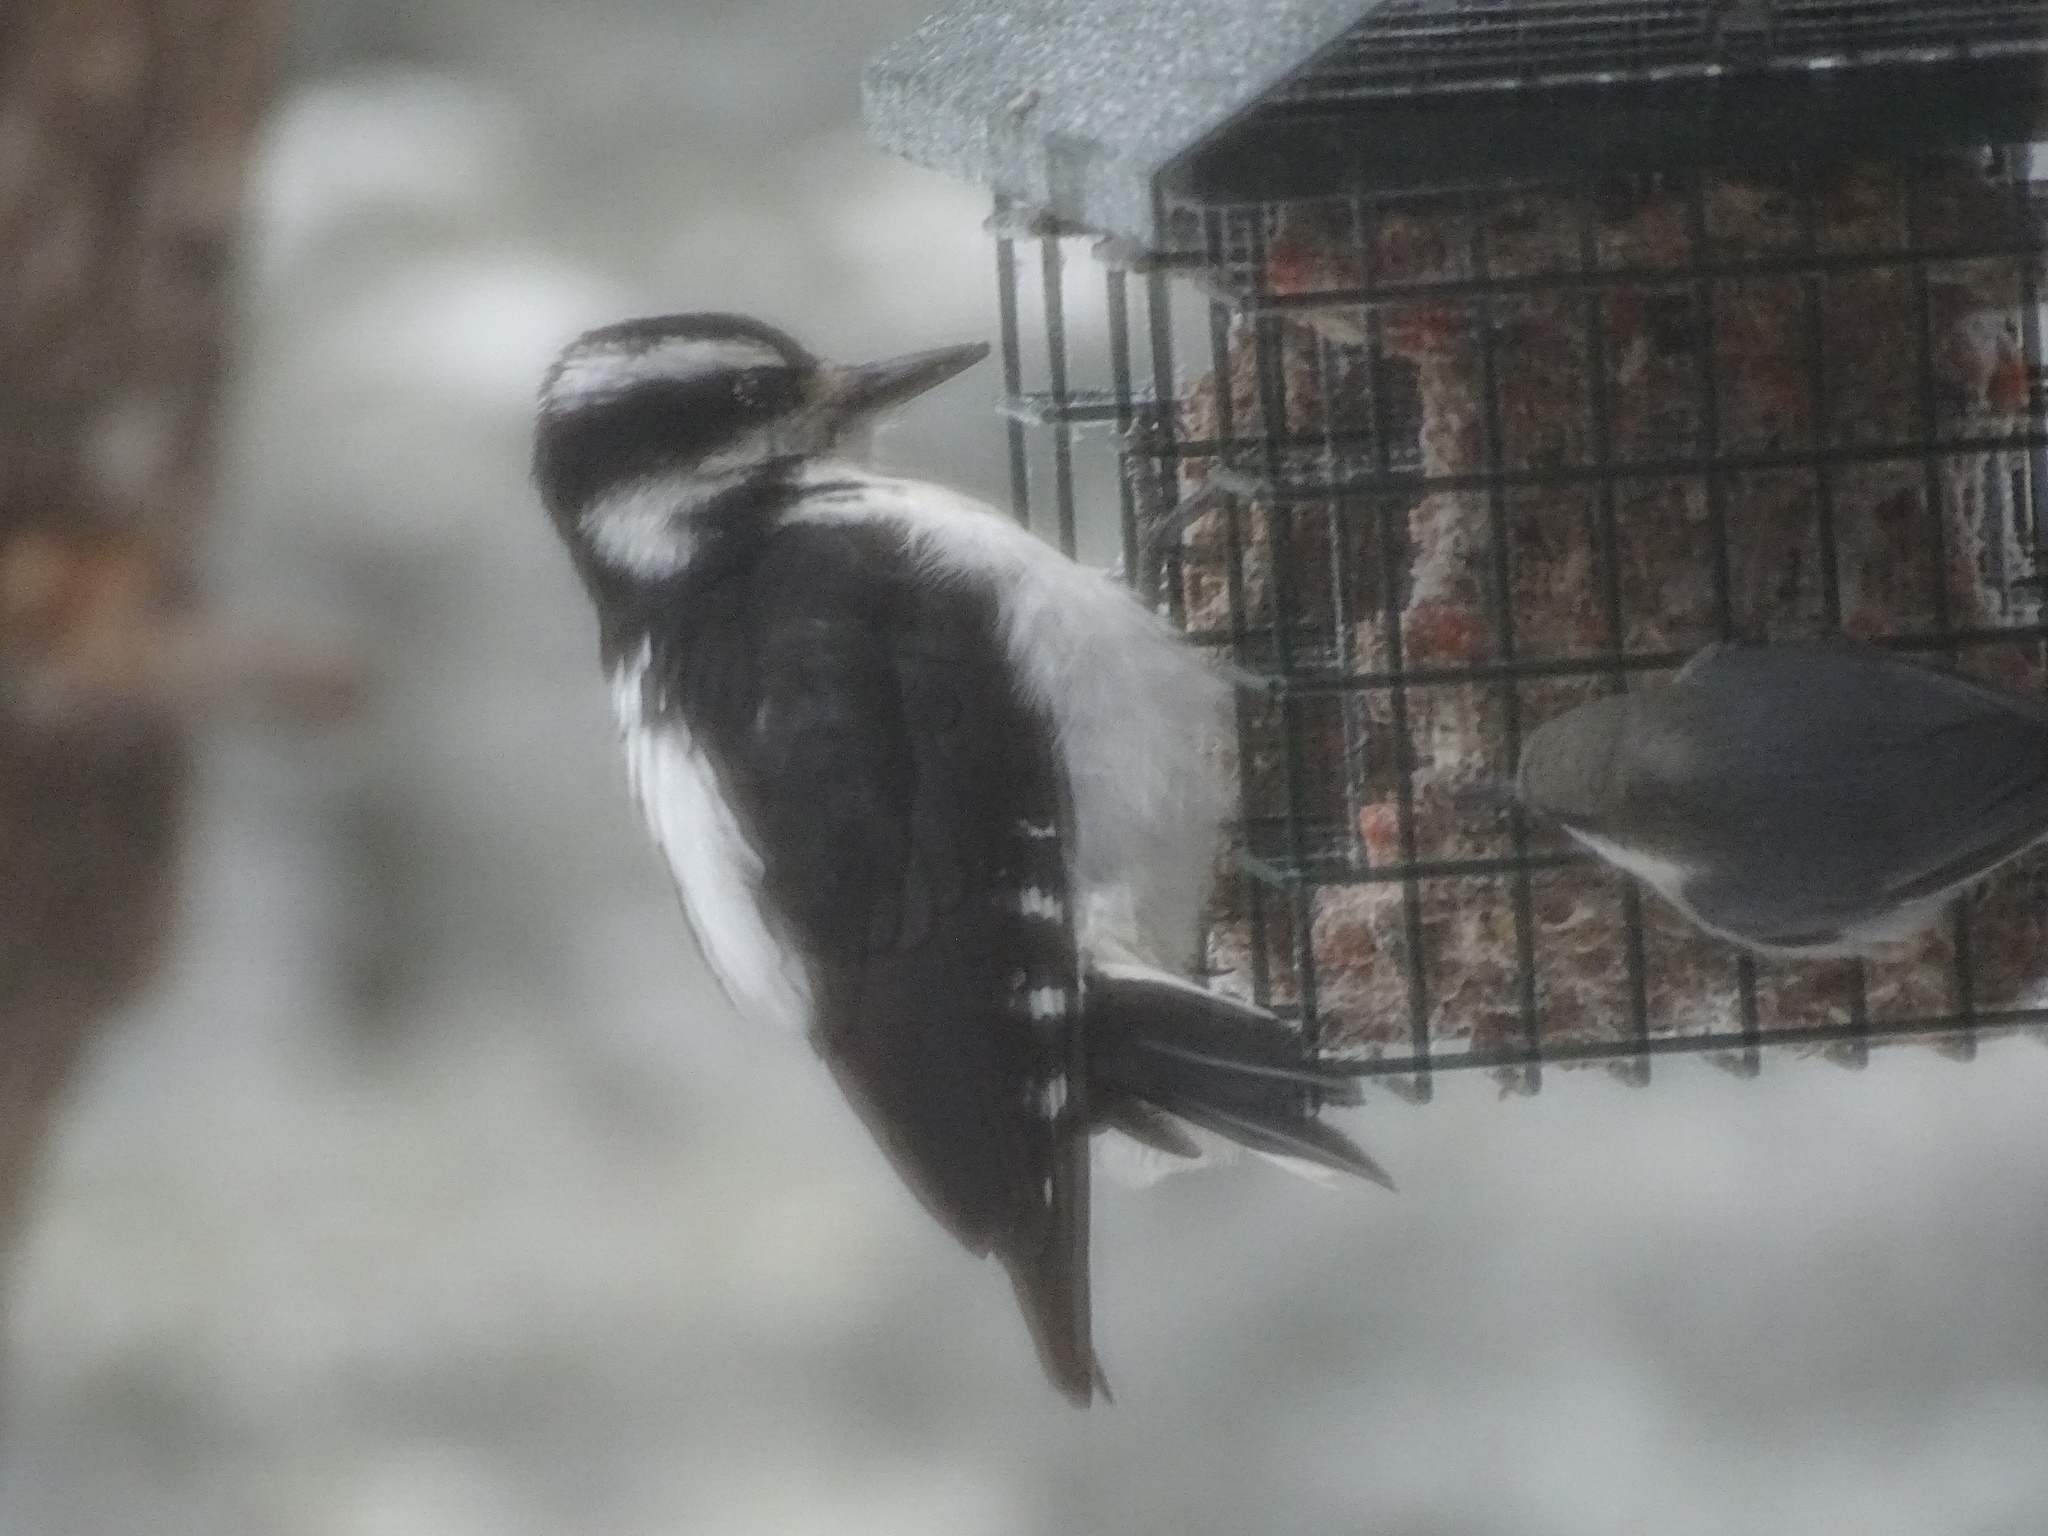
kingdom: Animalia
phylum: Chordata
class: Aves
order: Piciformes
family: Picidae
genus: Leuconotopicus
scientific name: Leuconotopicus villosus
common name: Hairy woodpecker
